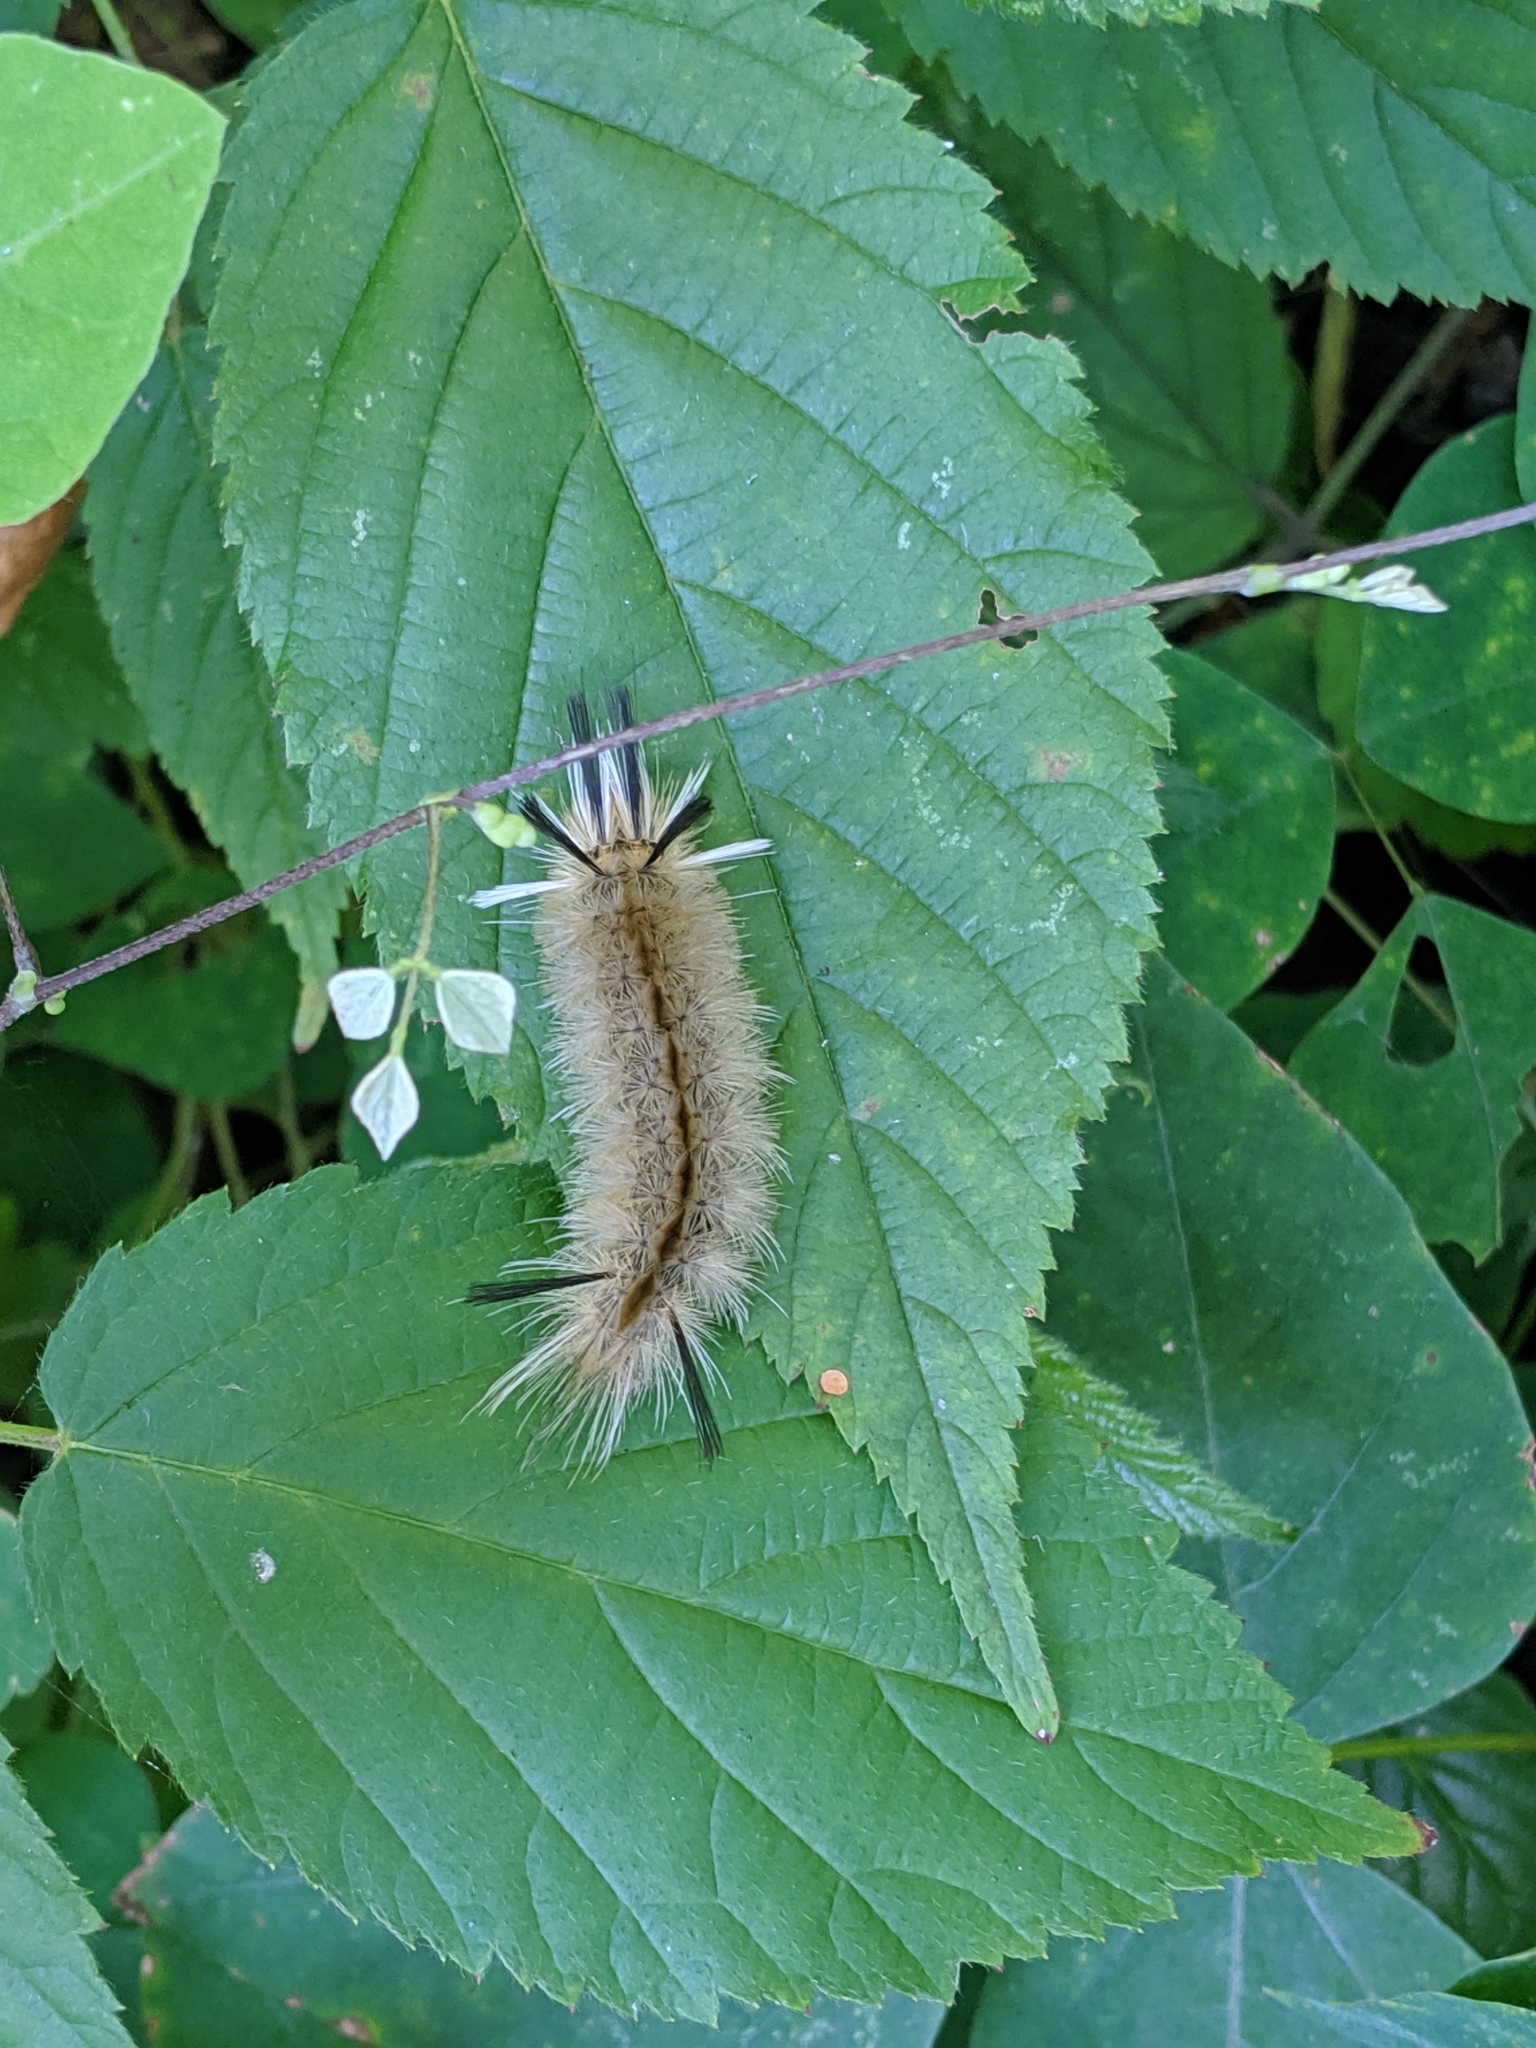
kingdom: Animalia
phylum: Arthropoda
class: Insecta
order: Lepidoptera
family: Erebidae
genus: Halysidota
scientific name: Halysidota tessellaris
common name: Banded tussock moth
